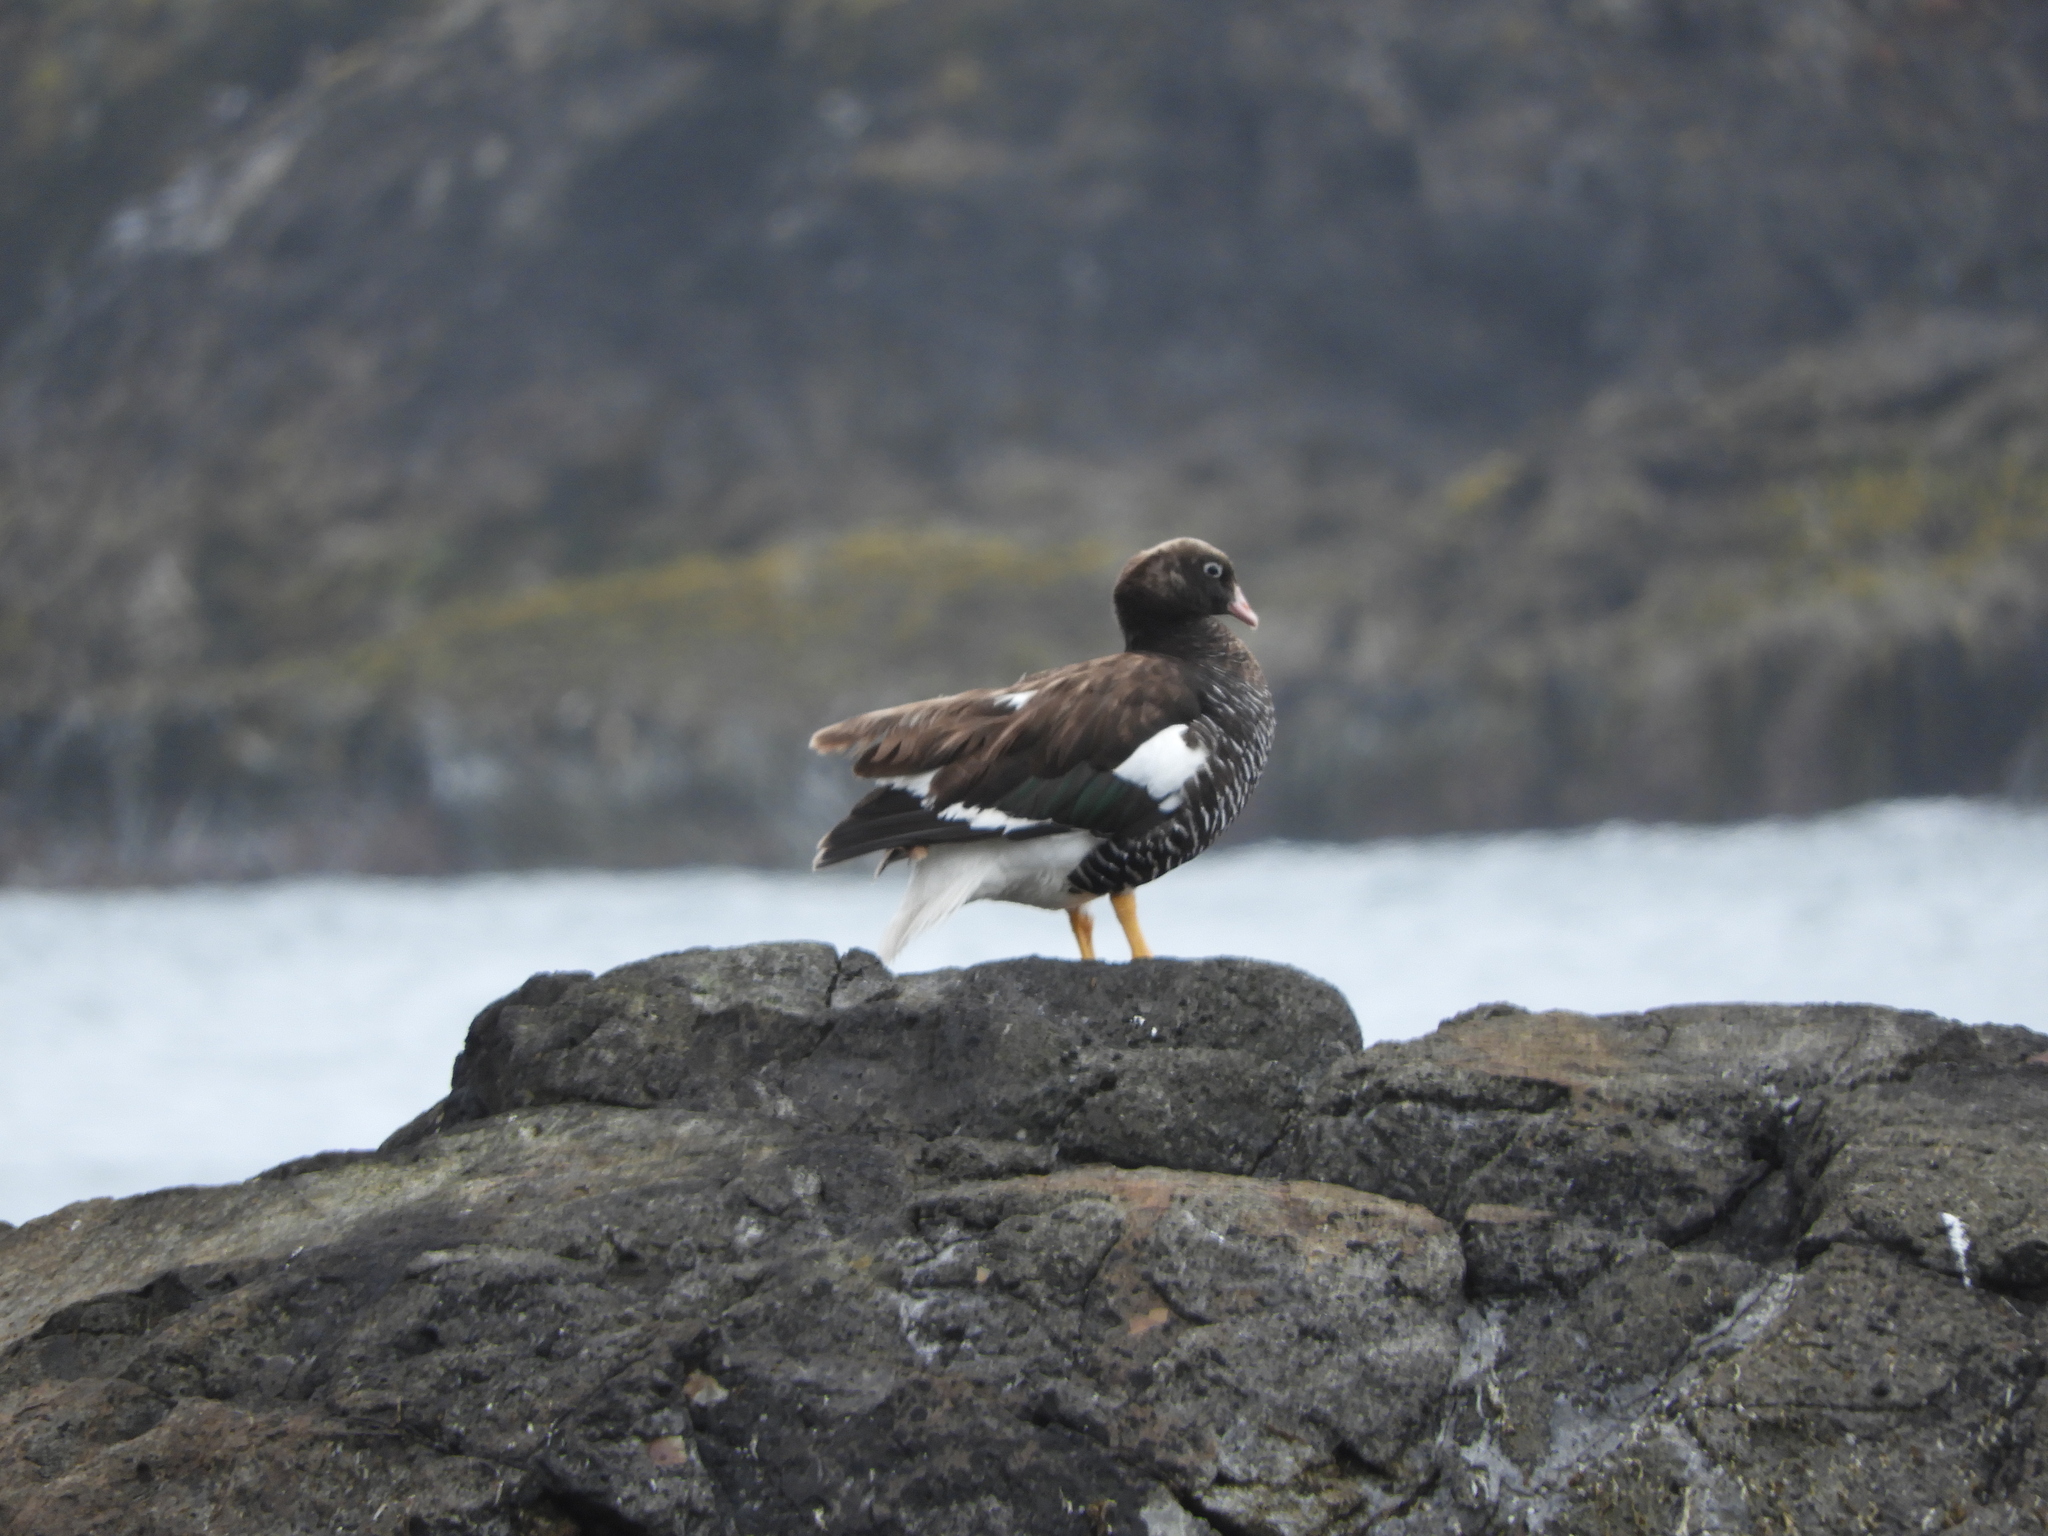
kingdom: Animalia
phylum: Chordata
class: Aves
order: Anseriformes
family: Anatidae
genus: Chloephaga
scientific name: Chloephaga hybrida
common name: Kelp goose
